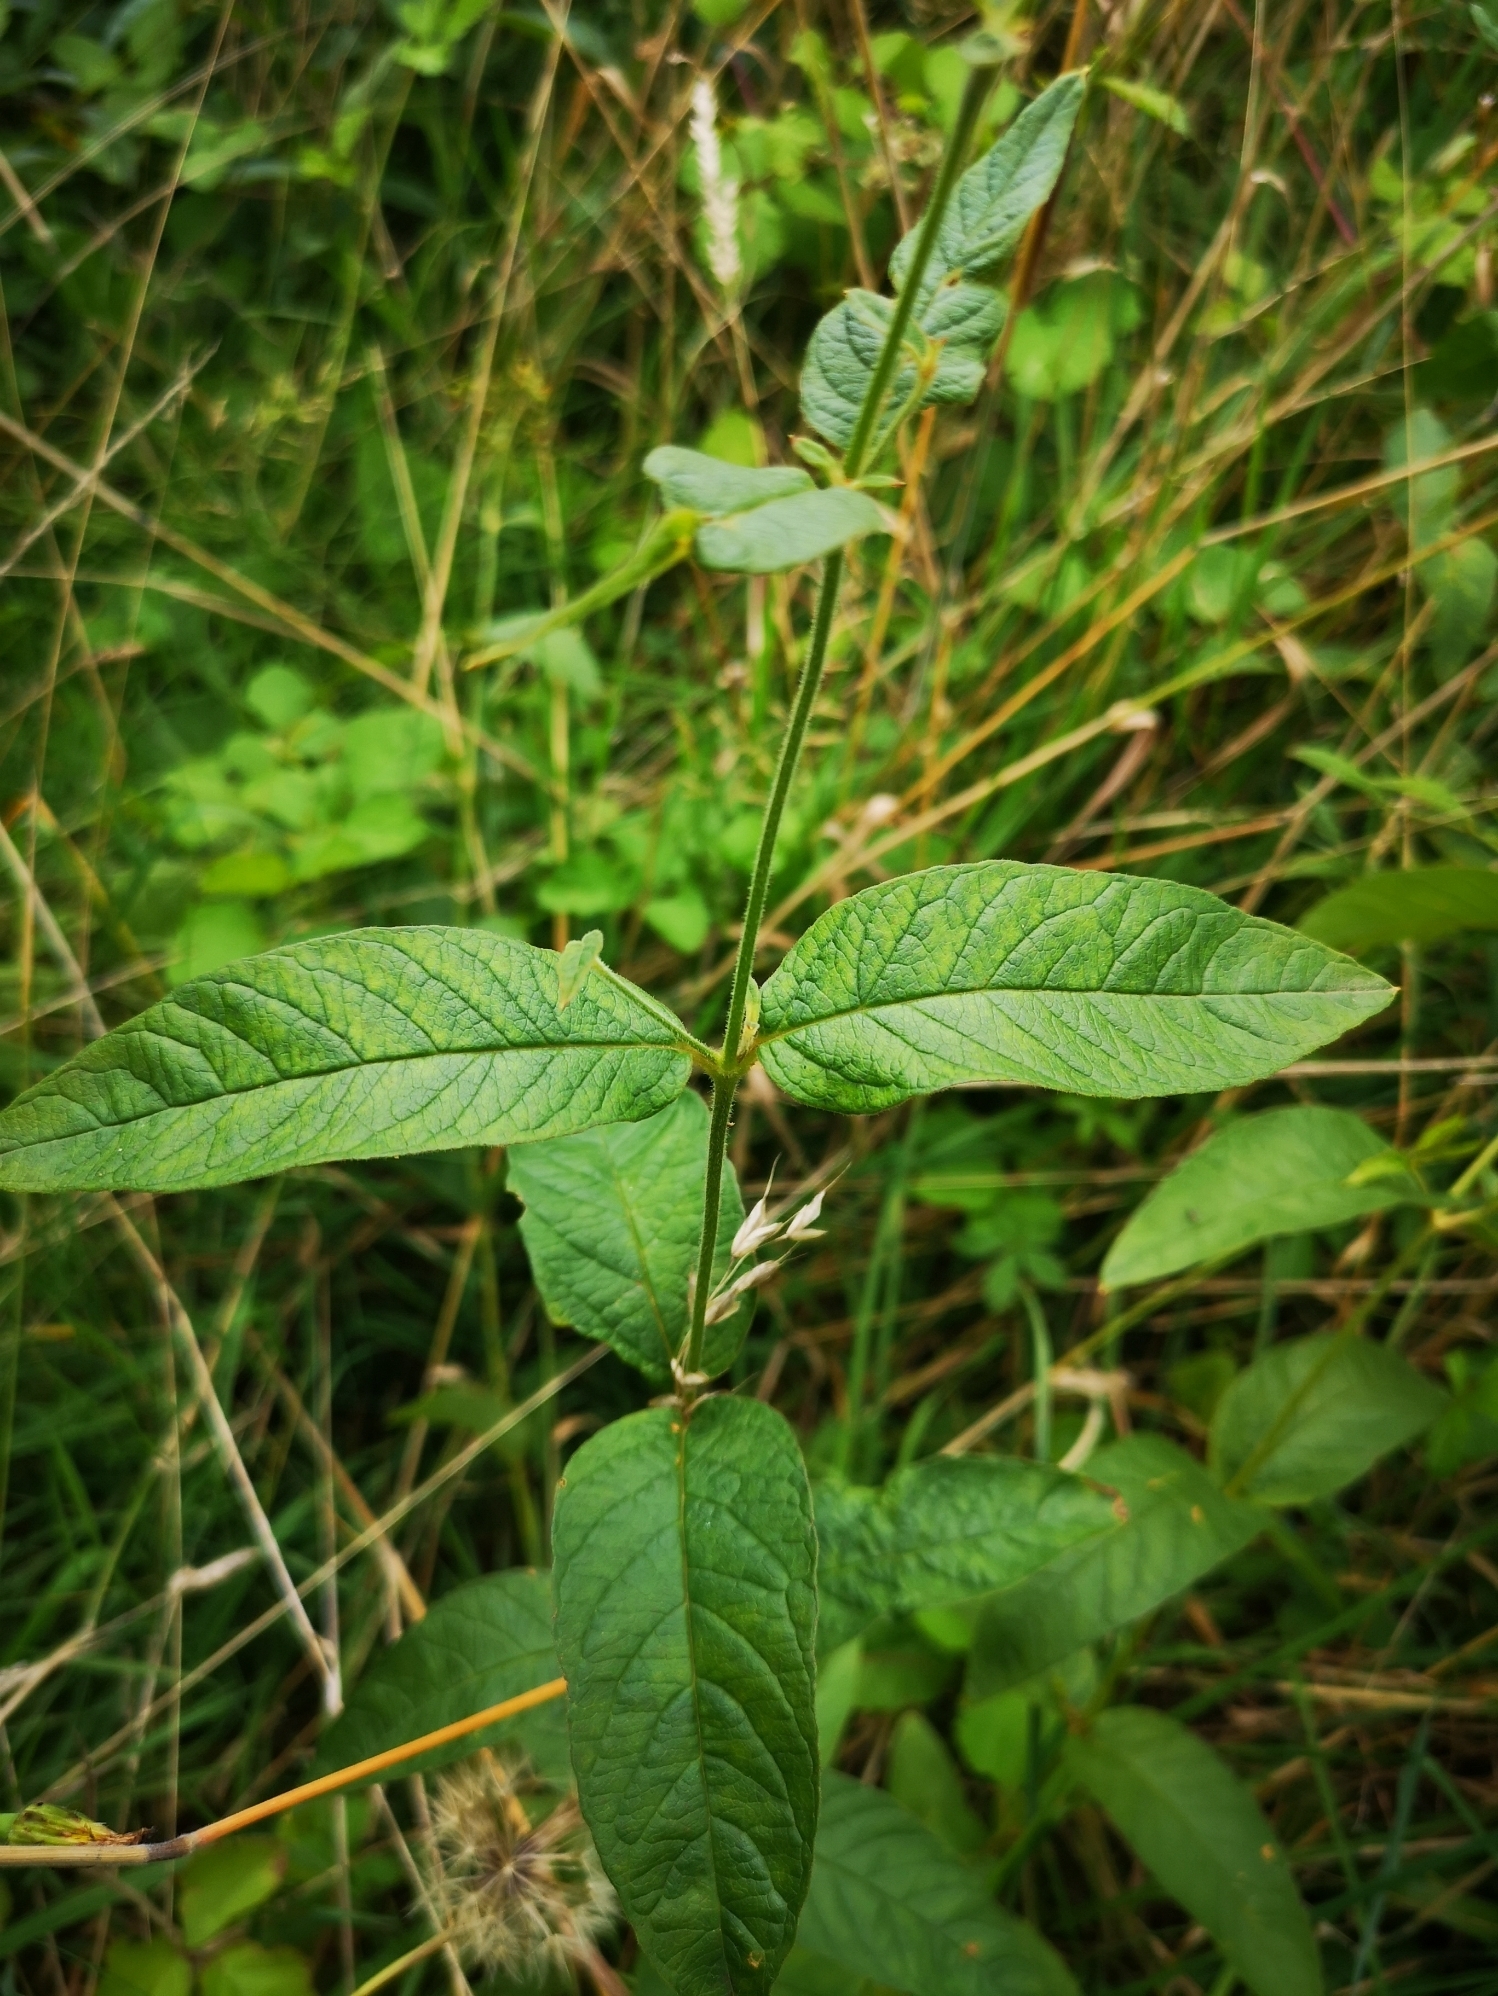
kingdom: Plantae
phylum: Tracheophyta
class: Magnoliopsida
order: Ericales
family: Primulaceae
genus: Lysimachia
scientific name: Lysimachia vulgaris
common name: Yellow loosestrife
